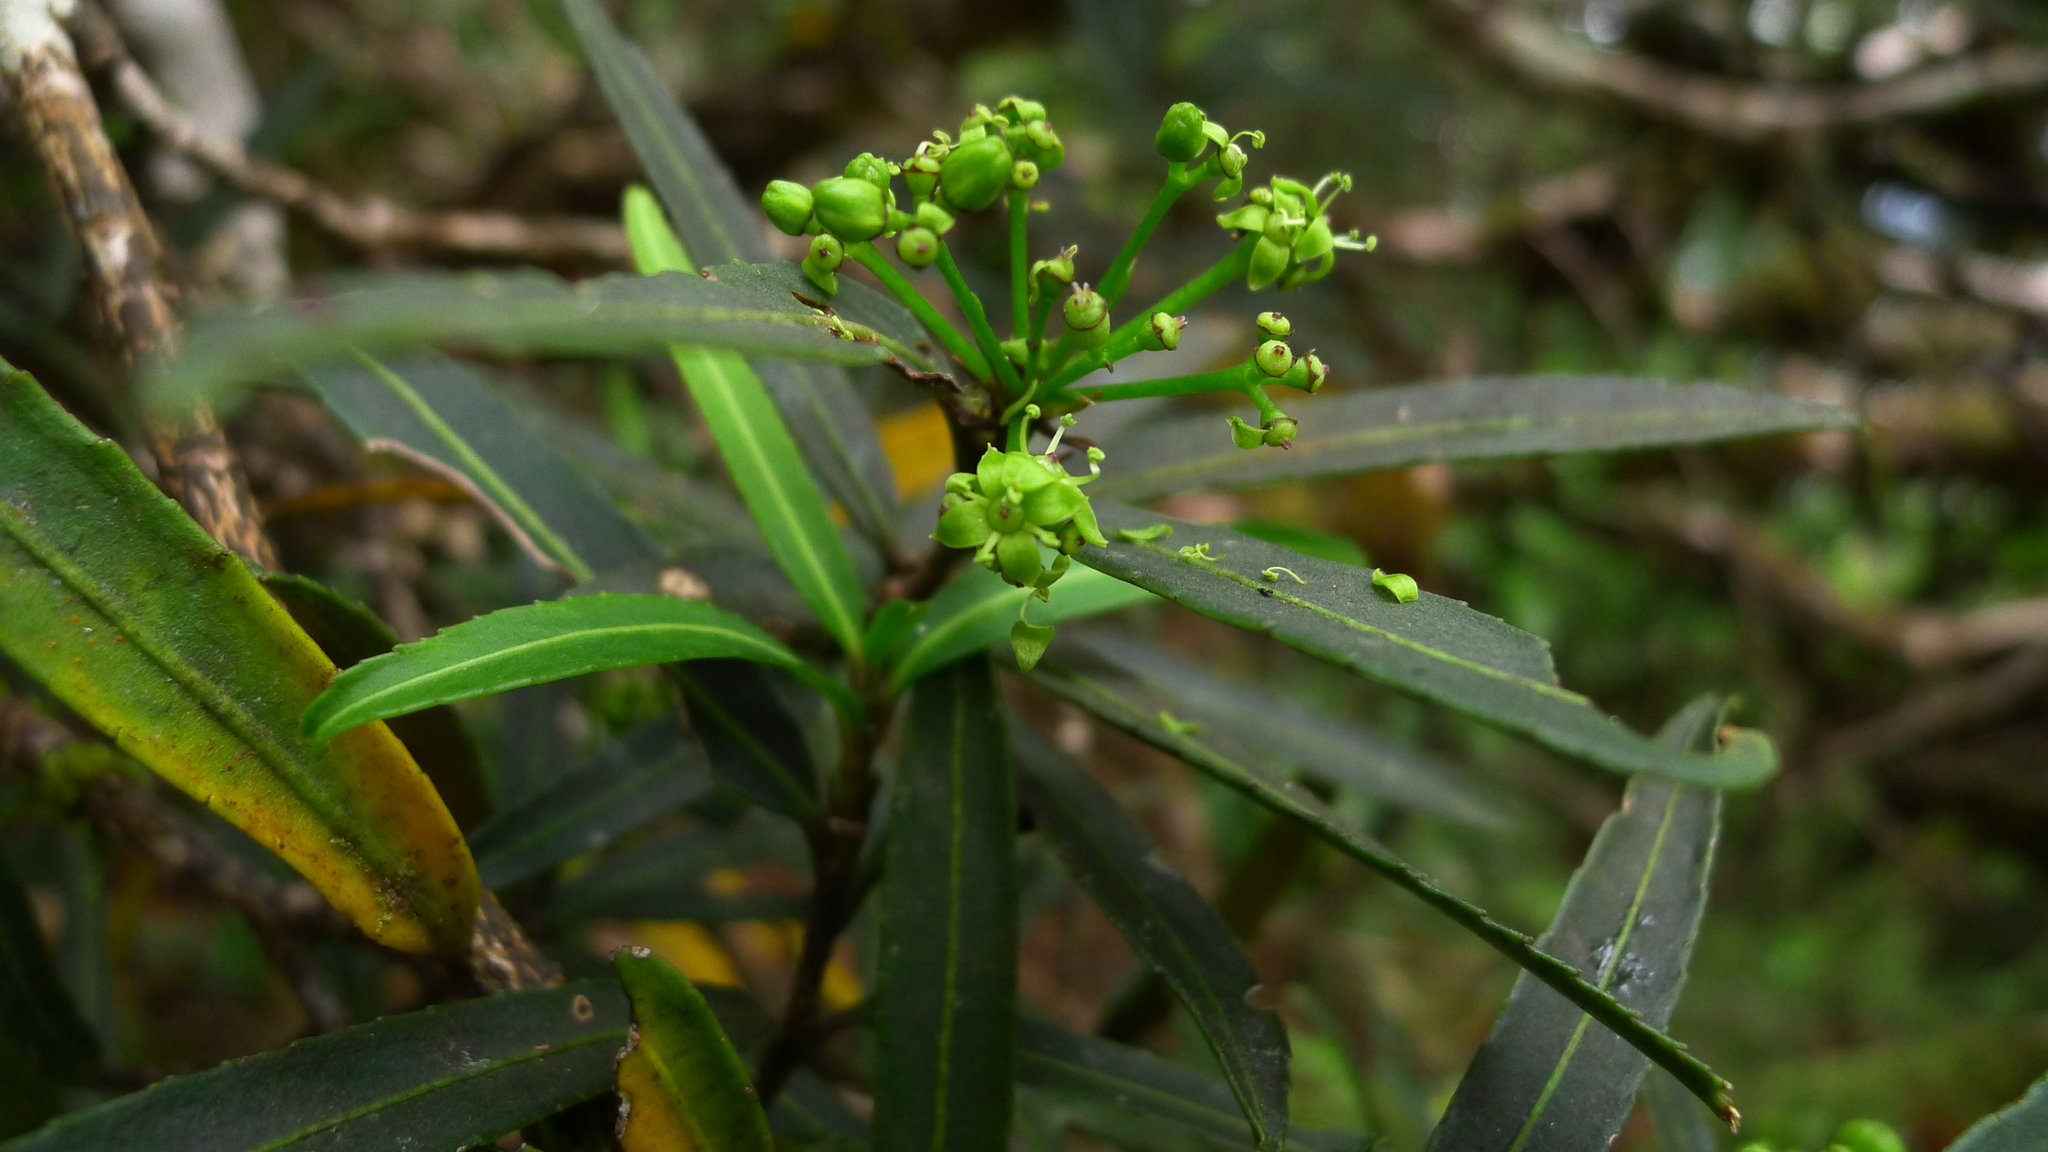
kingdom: Plantae
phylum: Tracheophyta
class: Magnoliopsida
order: Apiales
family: Araliaceae
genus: Pseudopanax
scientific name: Pseudopanax linearis
